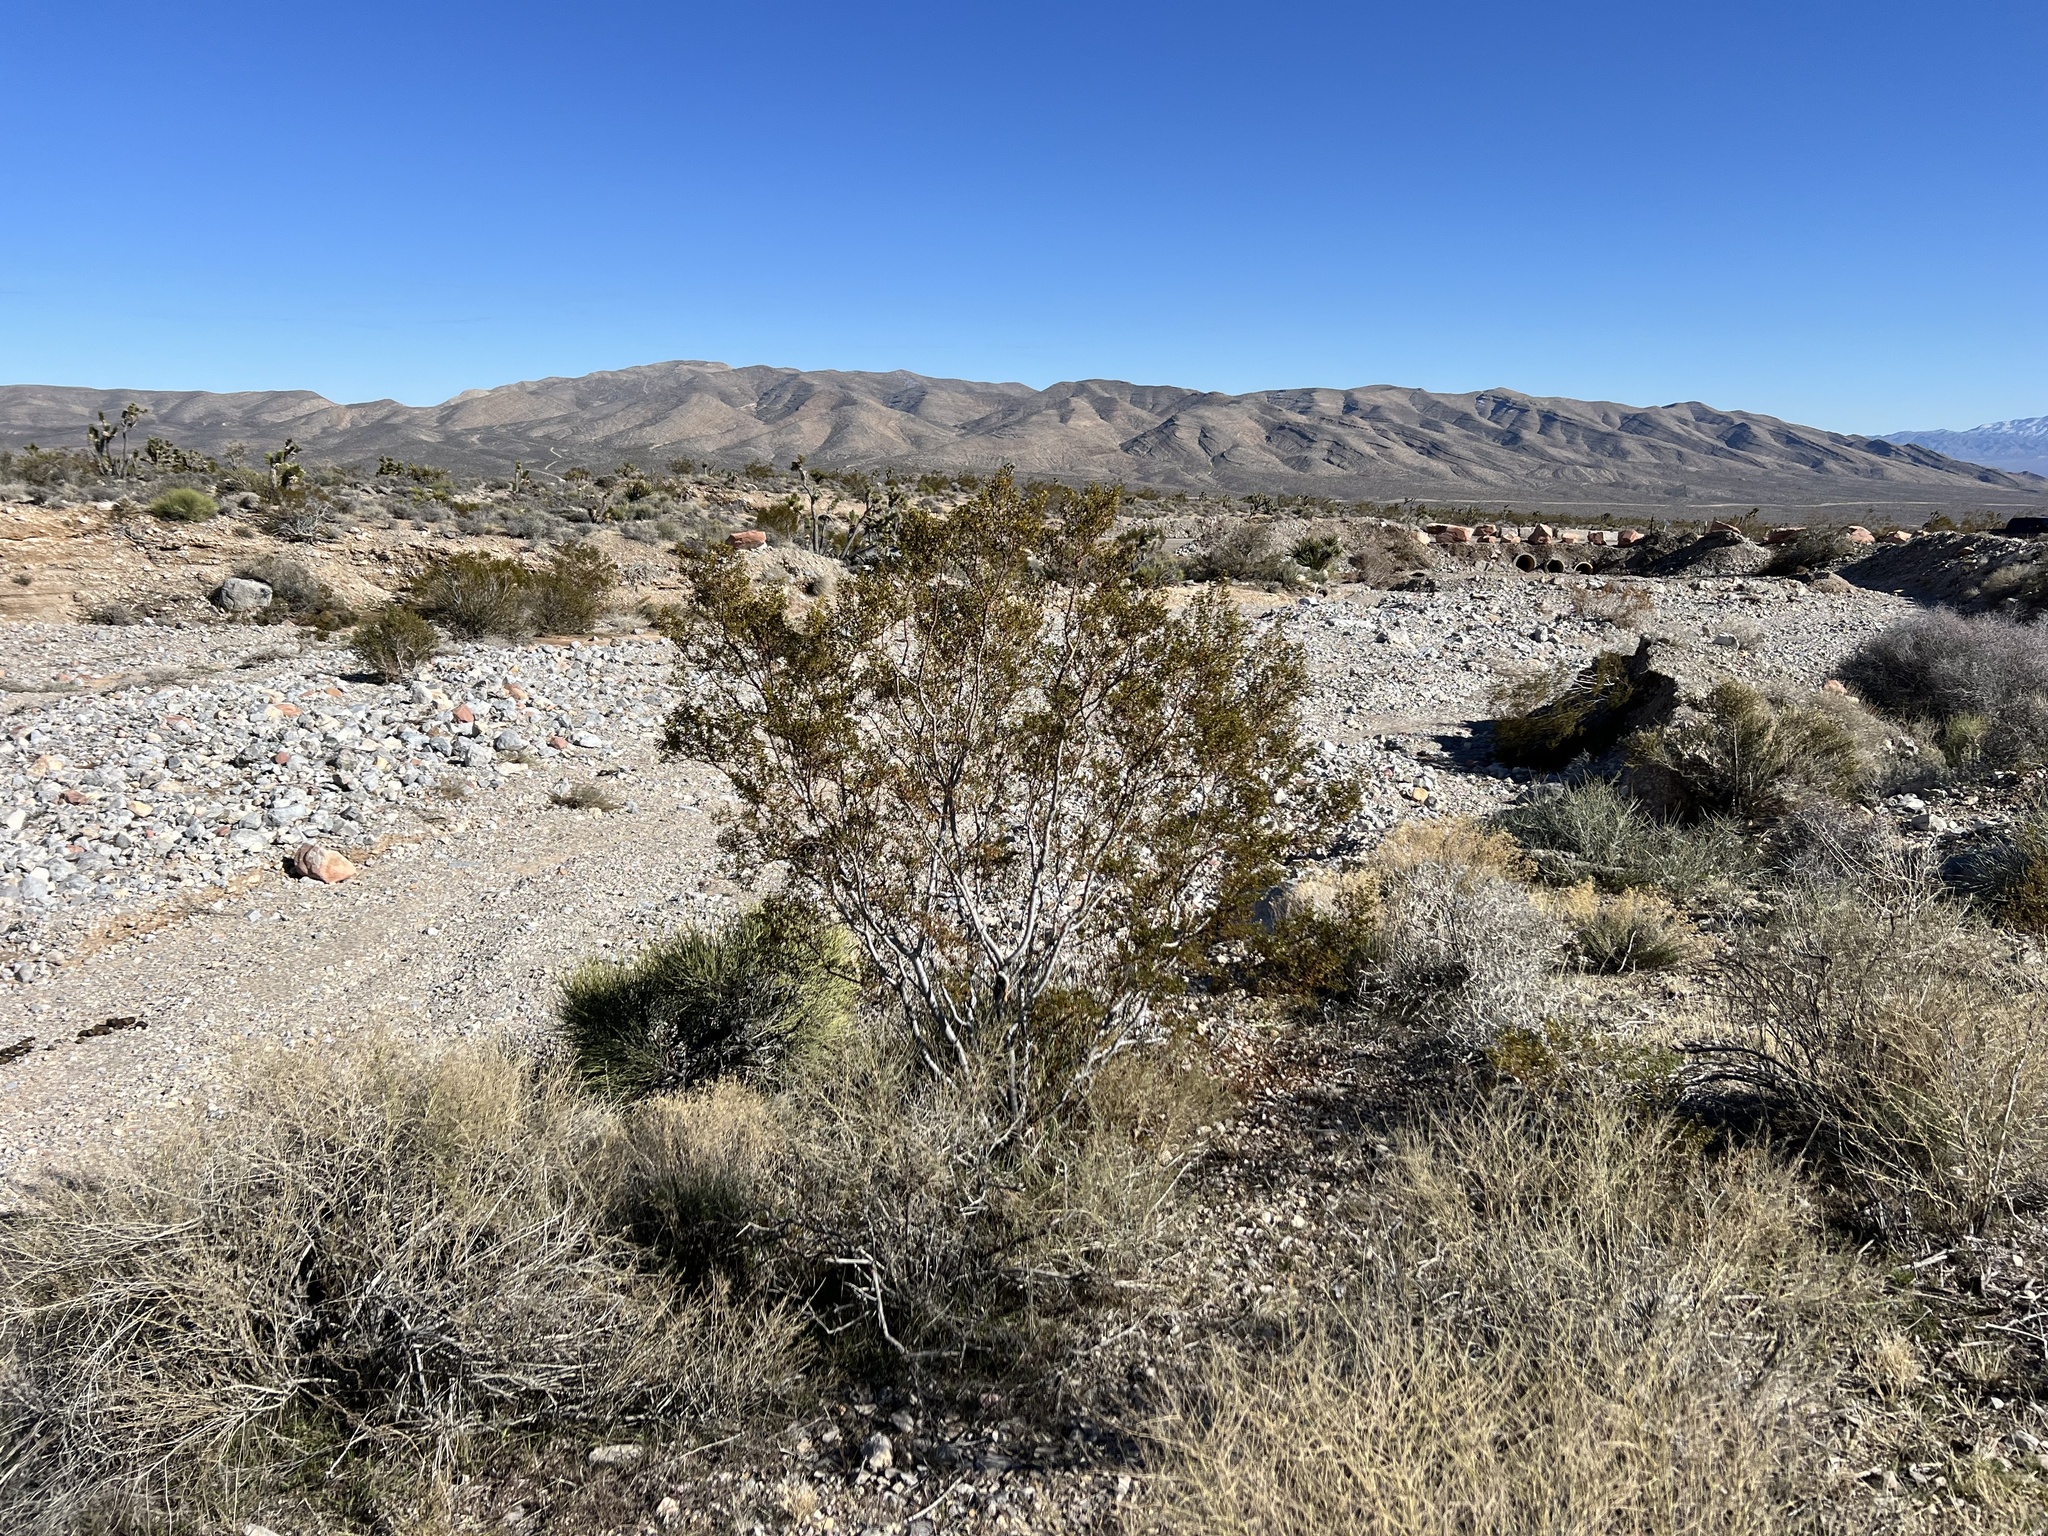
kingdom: Plantae
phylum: Tracheophyta
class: Magnoliopsida
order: Zygophyllales
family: Zygophyllaceae
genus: Larrea
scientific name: Larrea tridentata
